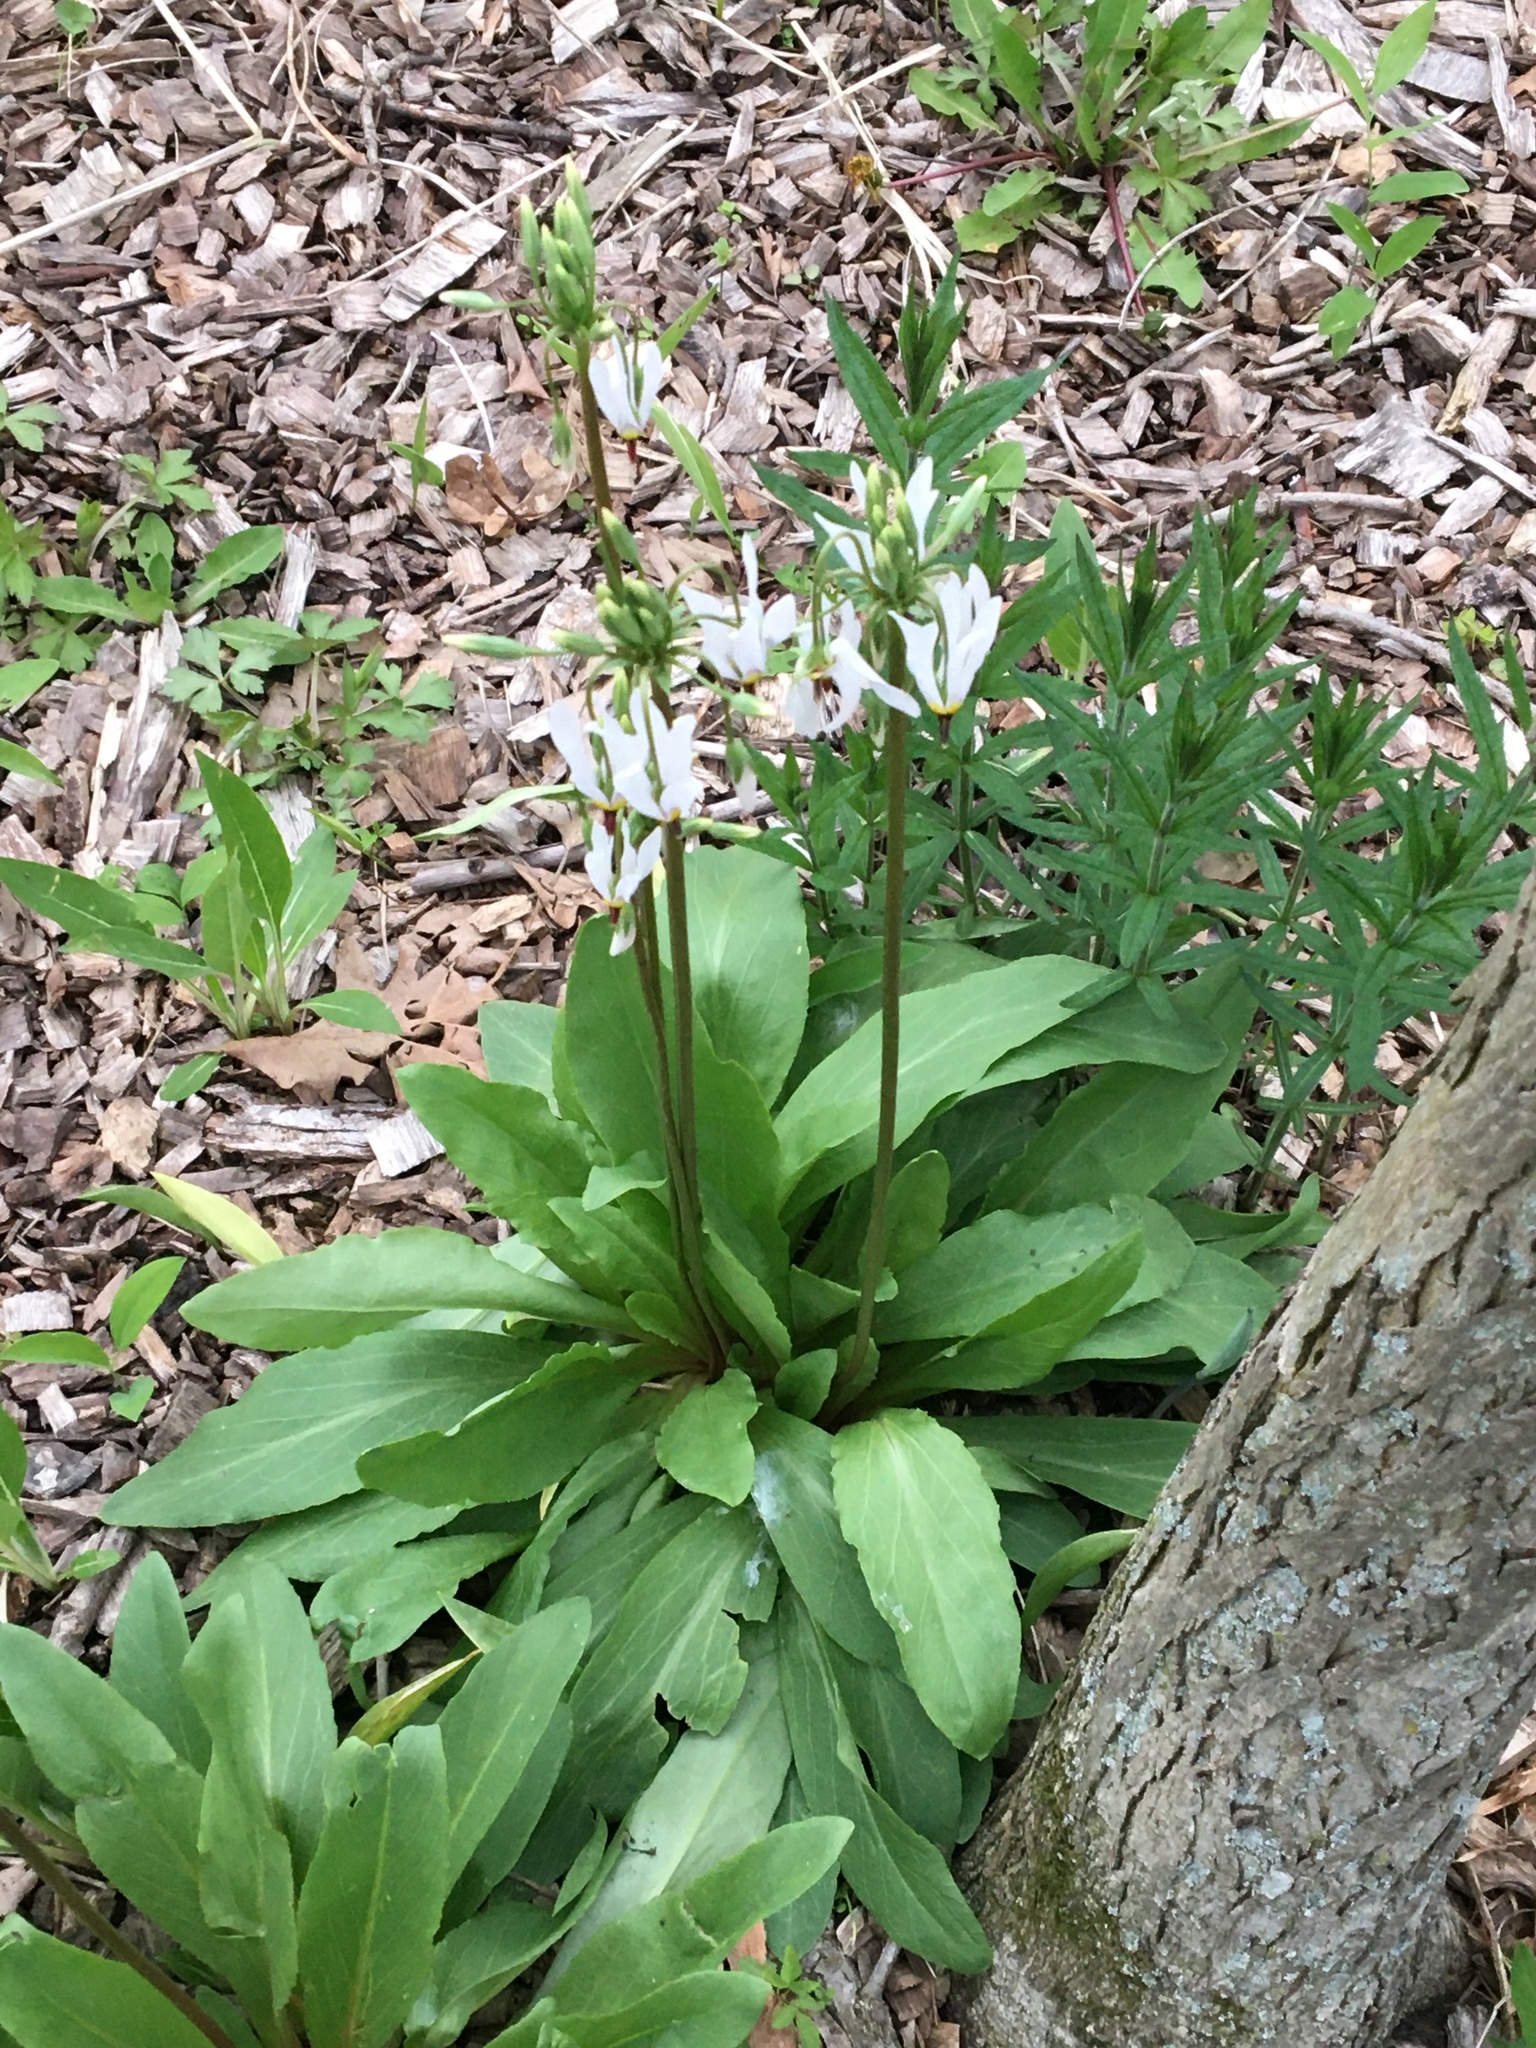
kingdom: Plantae
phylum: Tracheophyta
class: Magnoliopsida
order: Ericales
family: Primulaceae
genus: Dodecatheon
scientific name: Dodecatheon meadia
